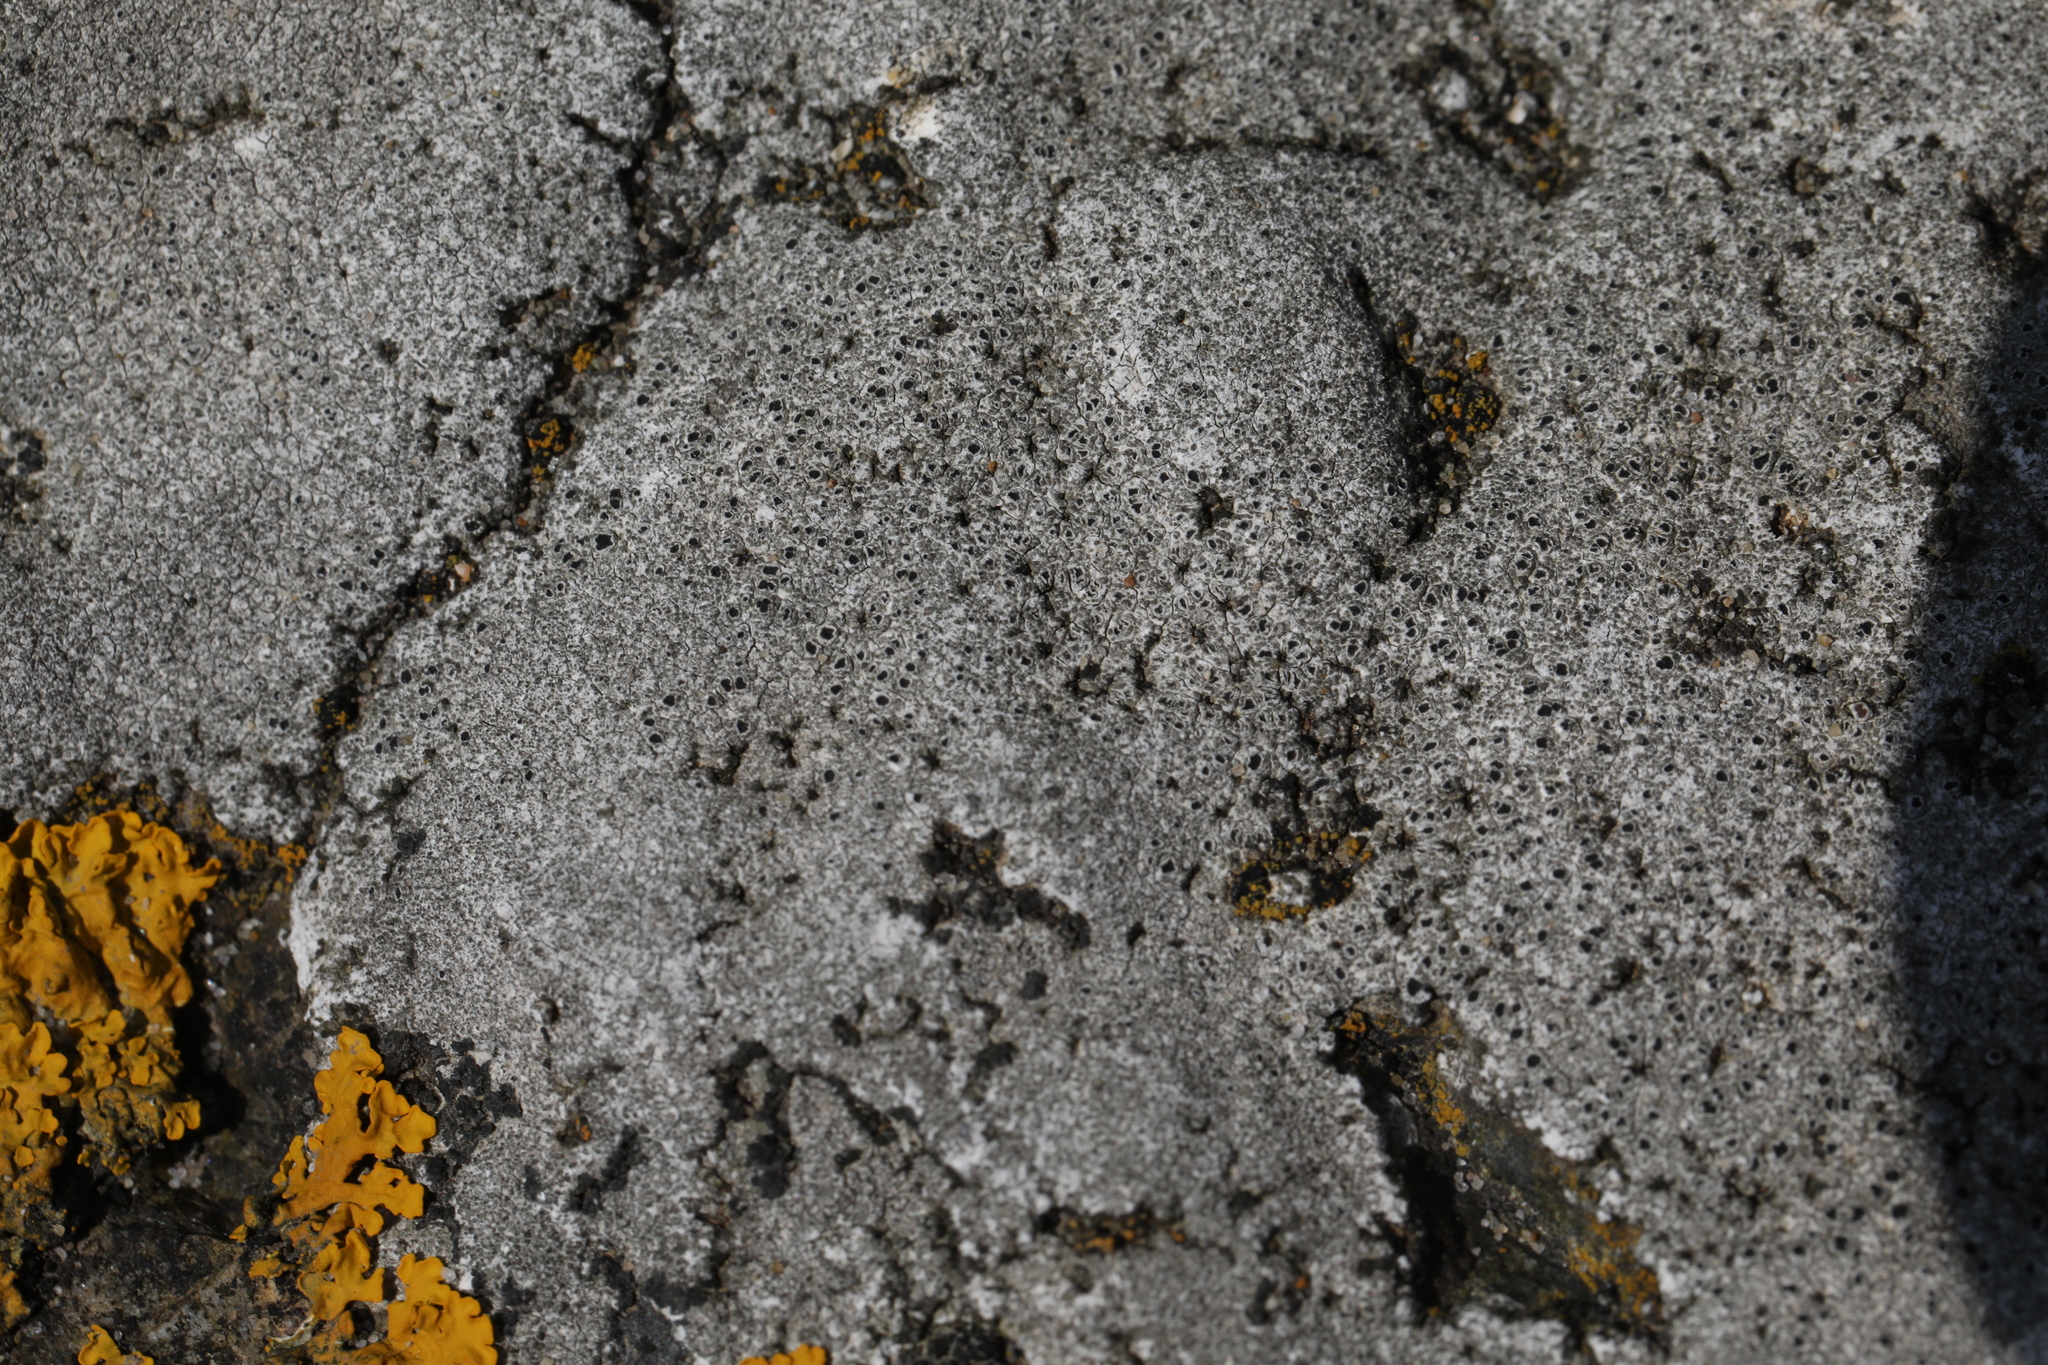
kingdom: Fungi
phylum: Ascomycota
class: Lecanoromycetes
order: Pertusariales
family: Megasporaceae
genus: Circinaria
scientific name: Circinaria leprosescens
